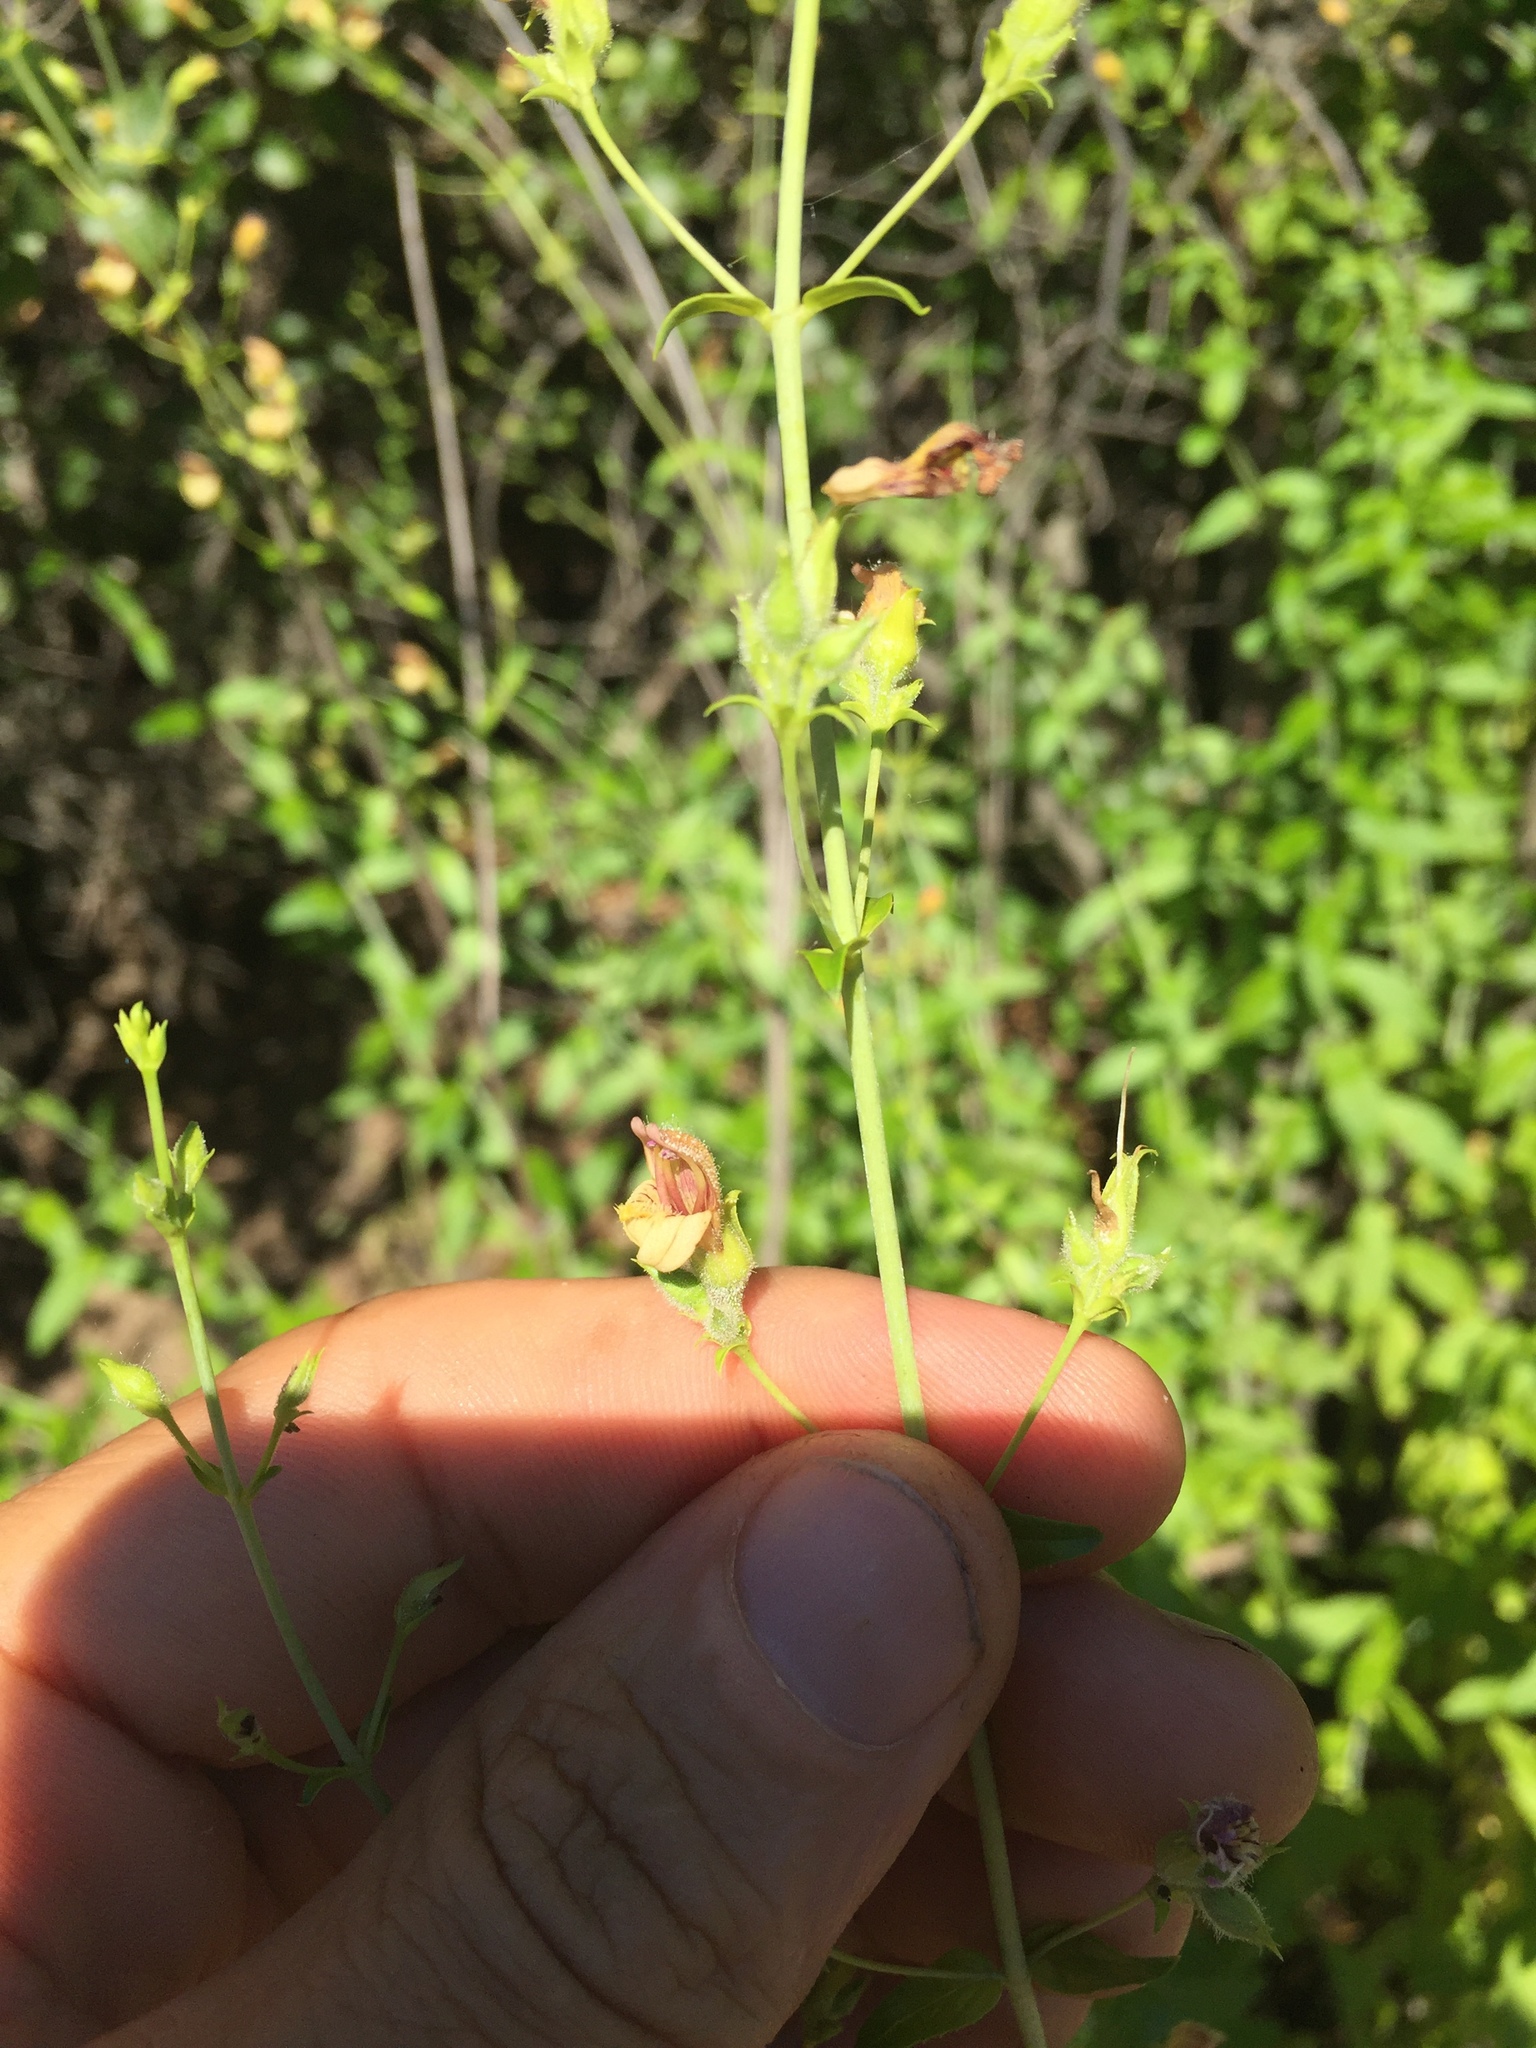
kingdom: Plantae
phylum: Tracheophyta
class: Magnoliopsida
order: Lamiales
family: Plantaginaceae
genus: Keckiella
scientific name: Keckiella lemmonii
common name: Lemmon's keckiella
